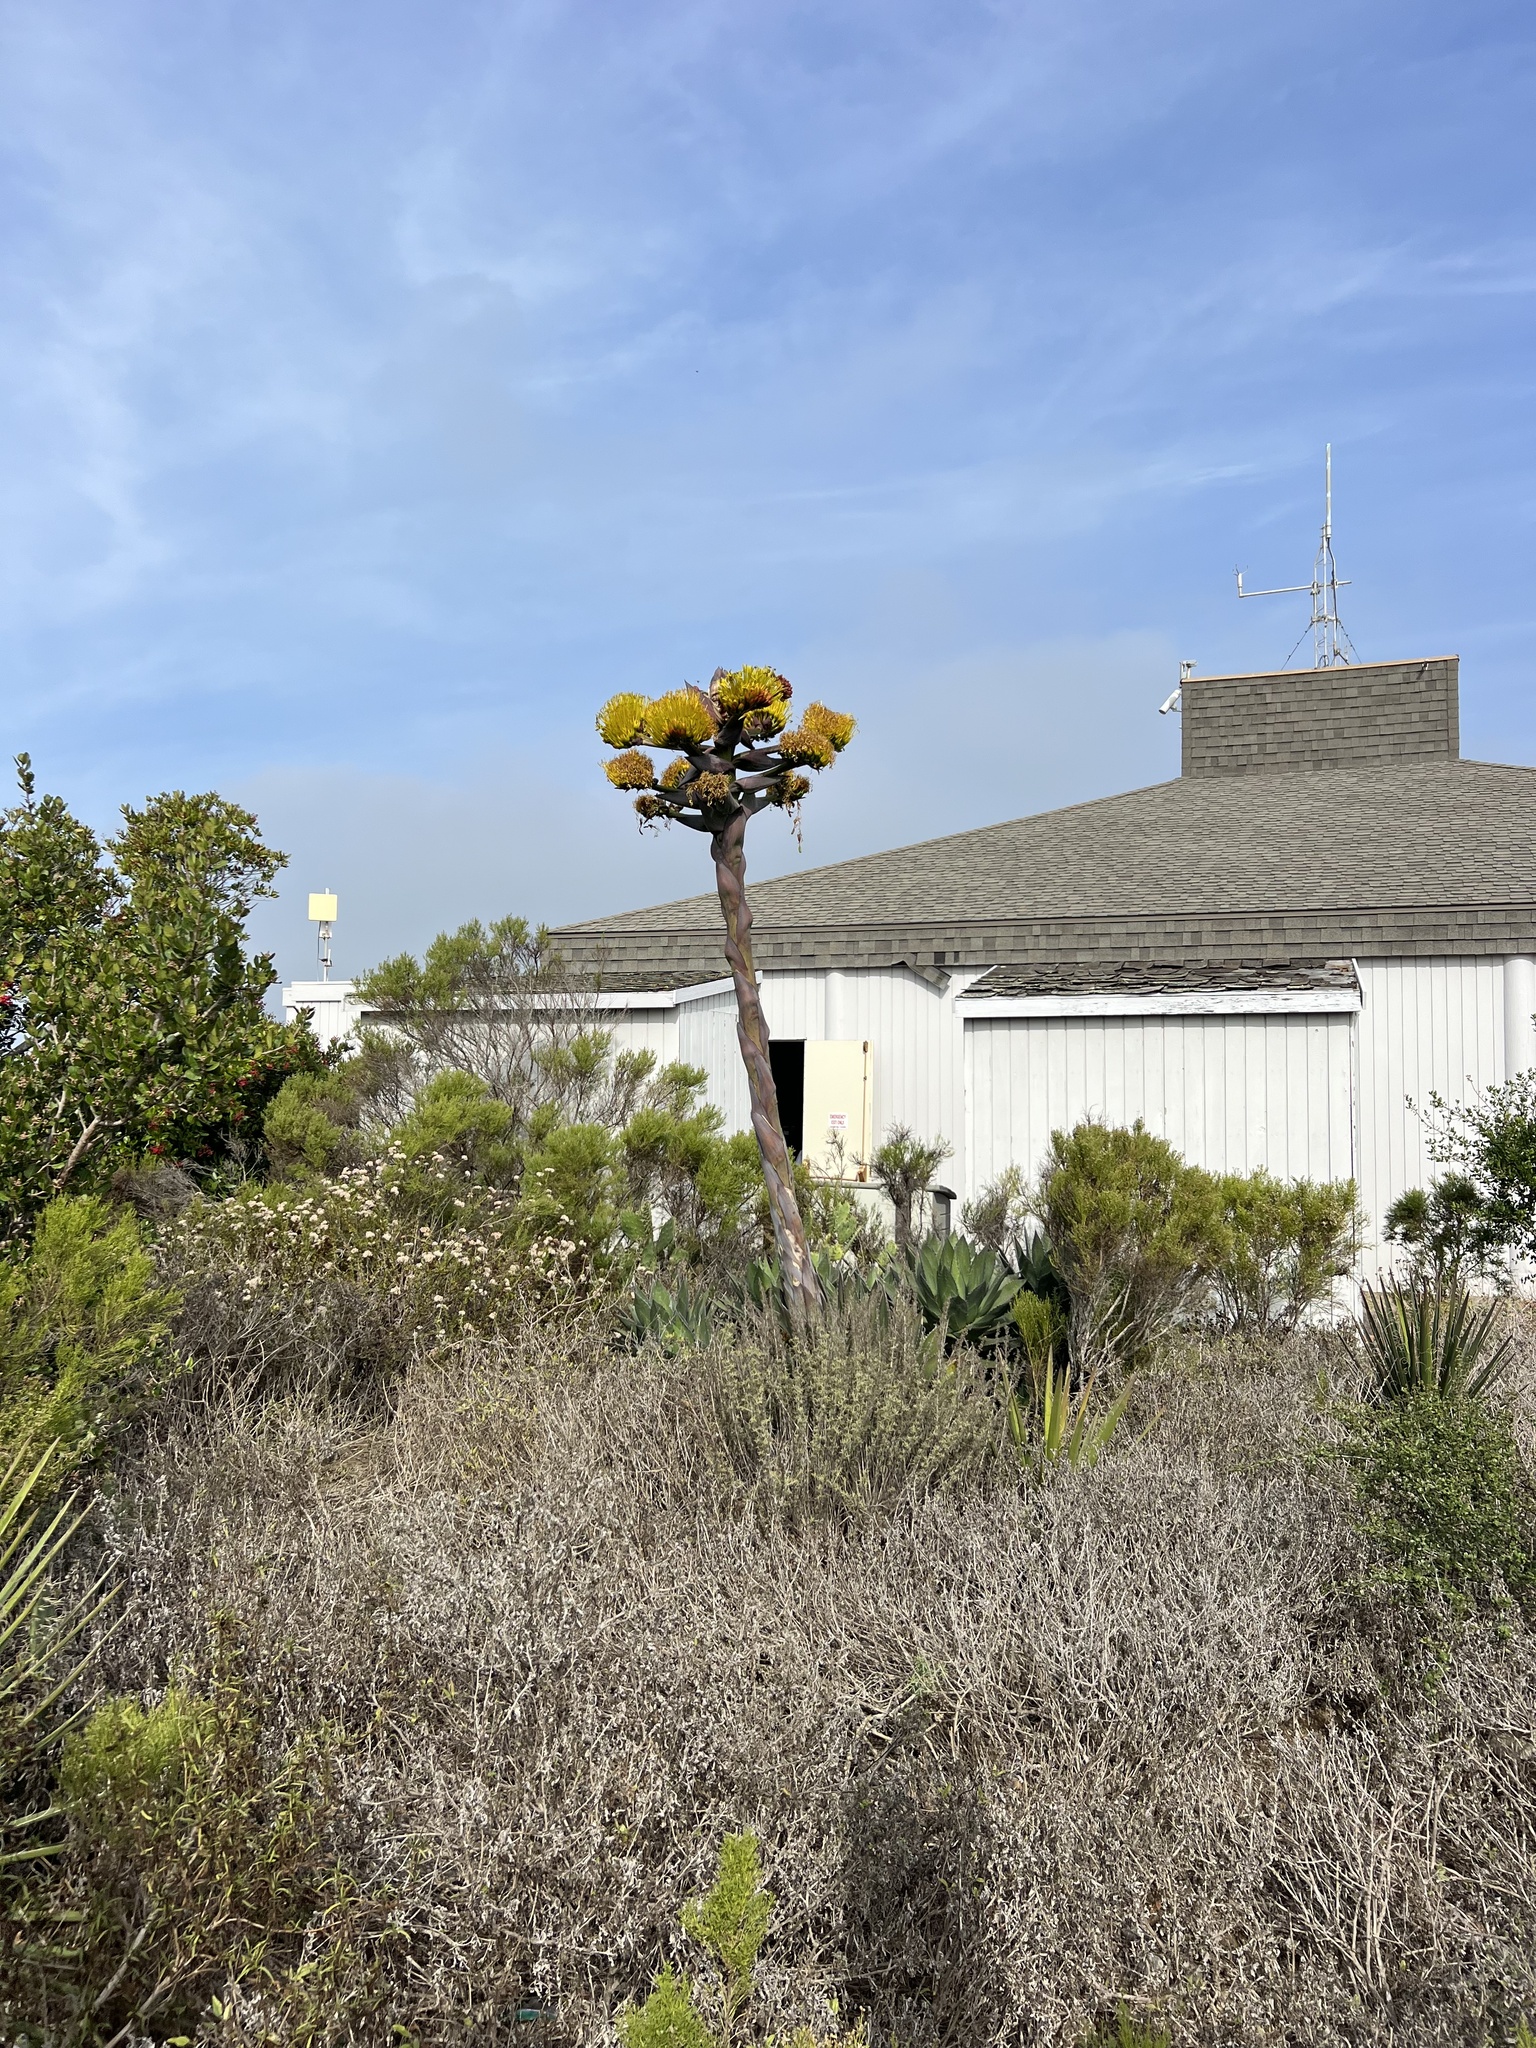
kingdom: Plantae
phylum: Tracheophyta
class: Liliopsida
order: Asparagales
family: Asparagaceae
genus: Agave
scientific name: Agave shawii
